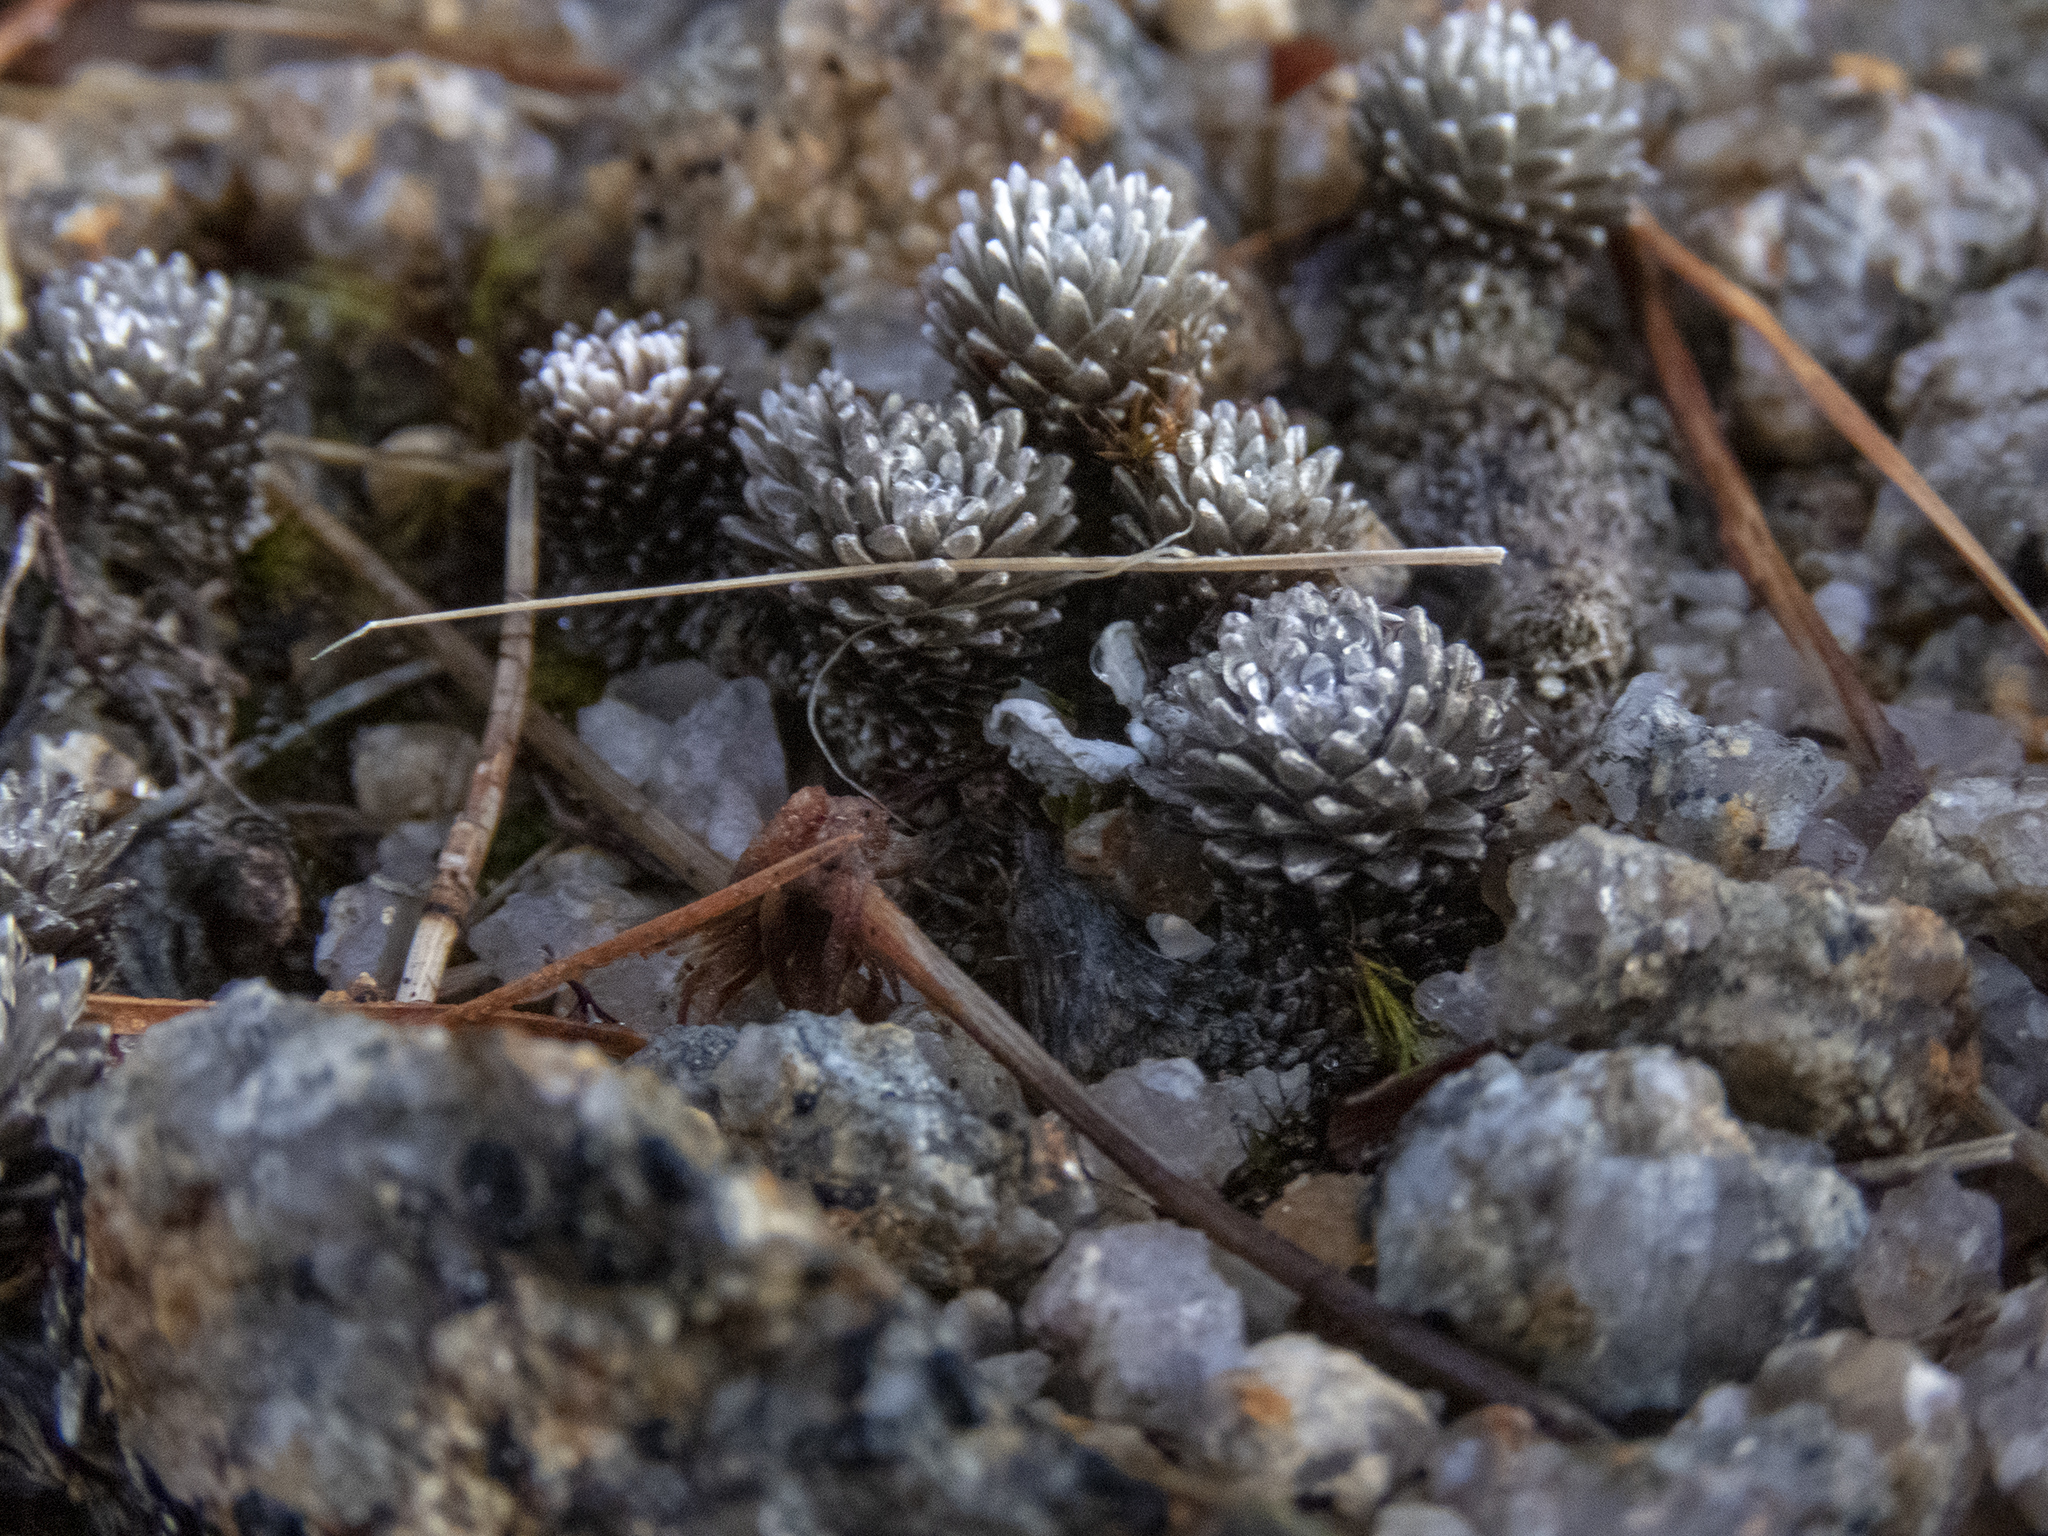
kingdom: Plantae
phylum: Tracheophyta
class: Magnoliopsida
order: Asterales
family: Asteraceae
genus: Raoulia
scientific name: Raoulia grandiflora
